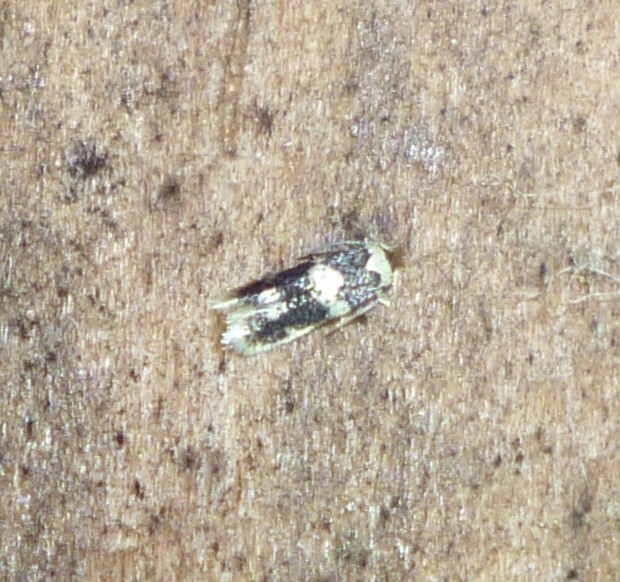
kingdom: Animalia
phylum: Arthropoda
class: Insecta
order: Lepidoptera
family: Nepticulidae
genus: Acalyptris
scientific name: Acalyptris thoracealbella
